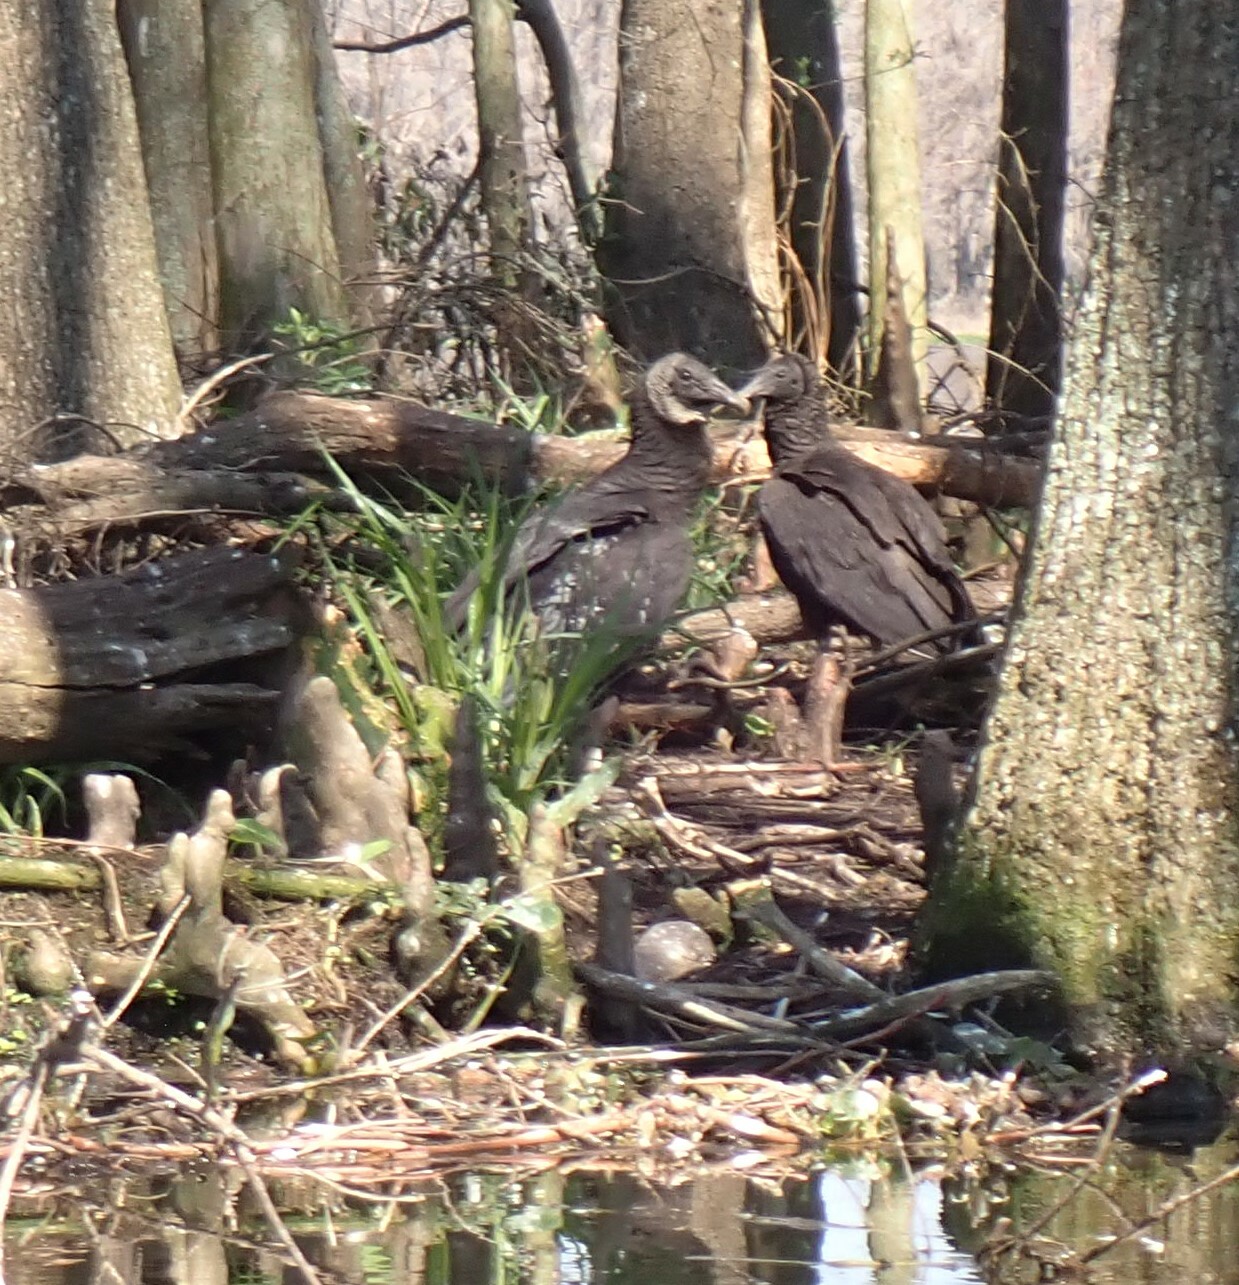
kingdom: Animalia
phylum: Chordata
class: Aves
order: Accipitriformes
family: Cathartidae
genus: Coragyps
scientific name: Coragyps atratus
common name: Black vulture
